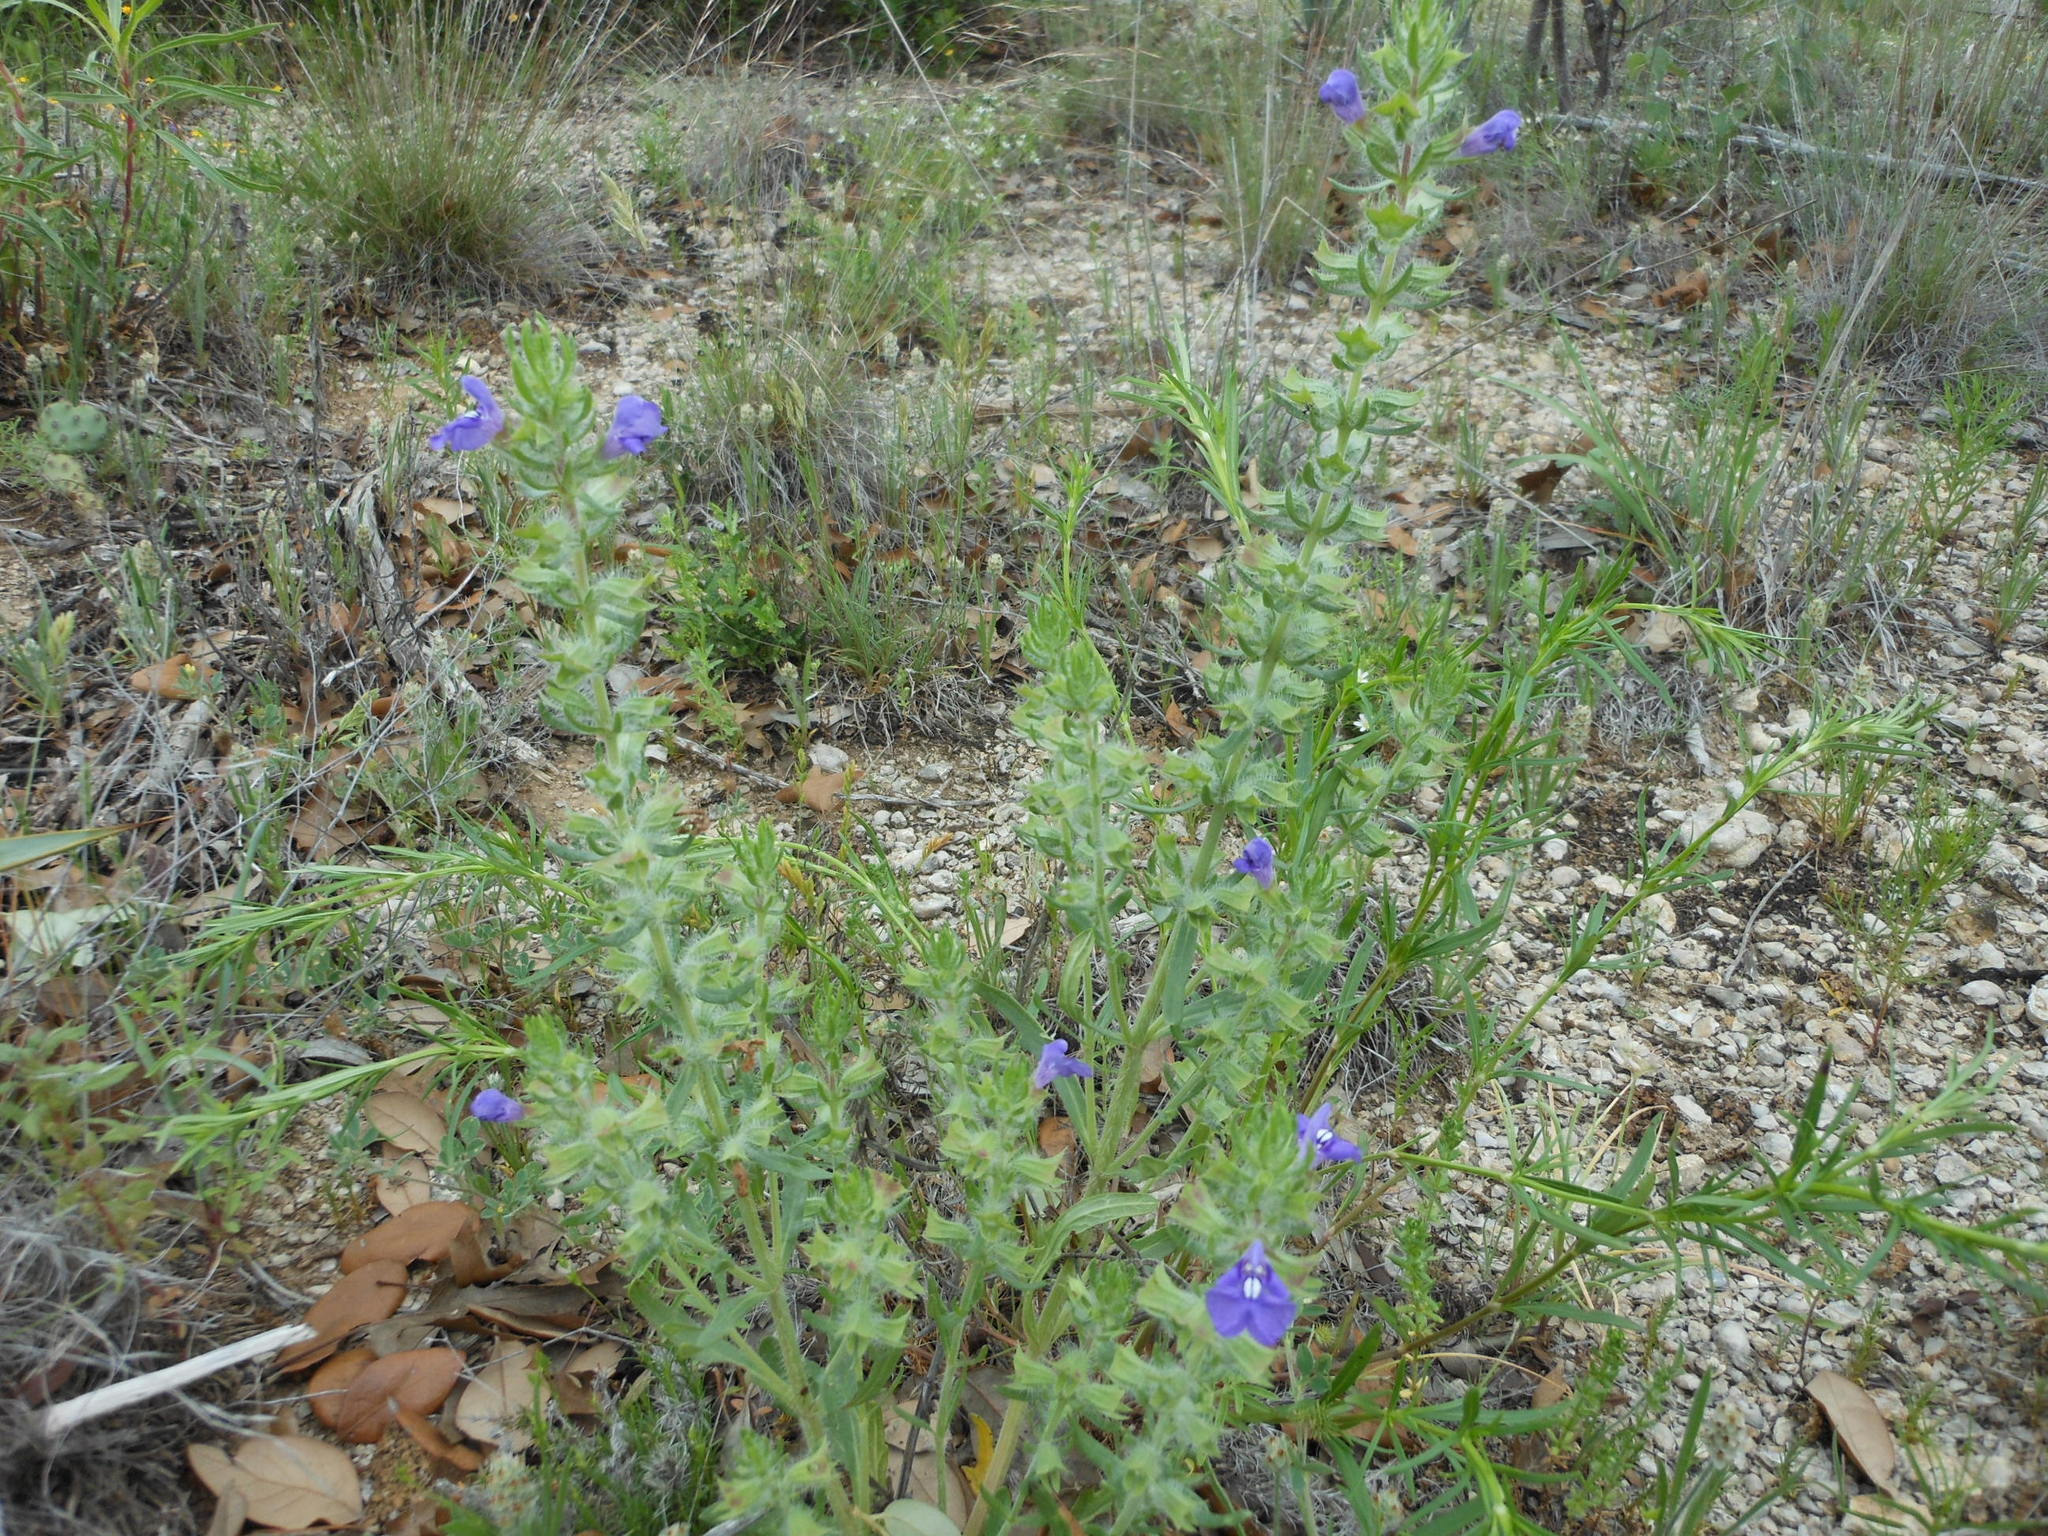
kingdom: Plantae
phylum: Tracheophyta
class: Magnoliopsida
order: Lamiales
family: Lamiaceae
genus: Salvia
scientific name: Salvia texana
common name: Texas sage
